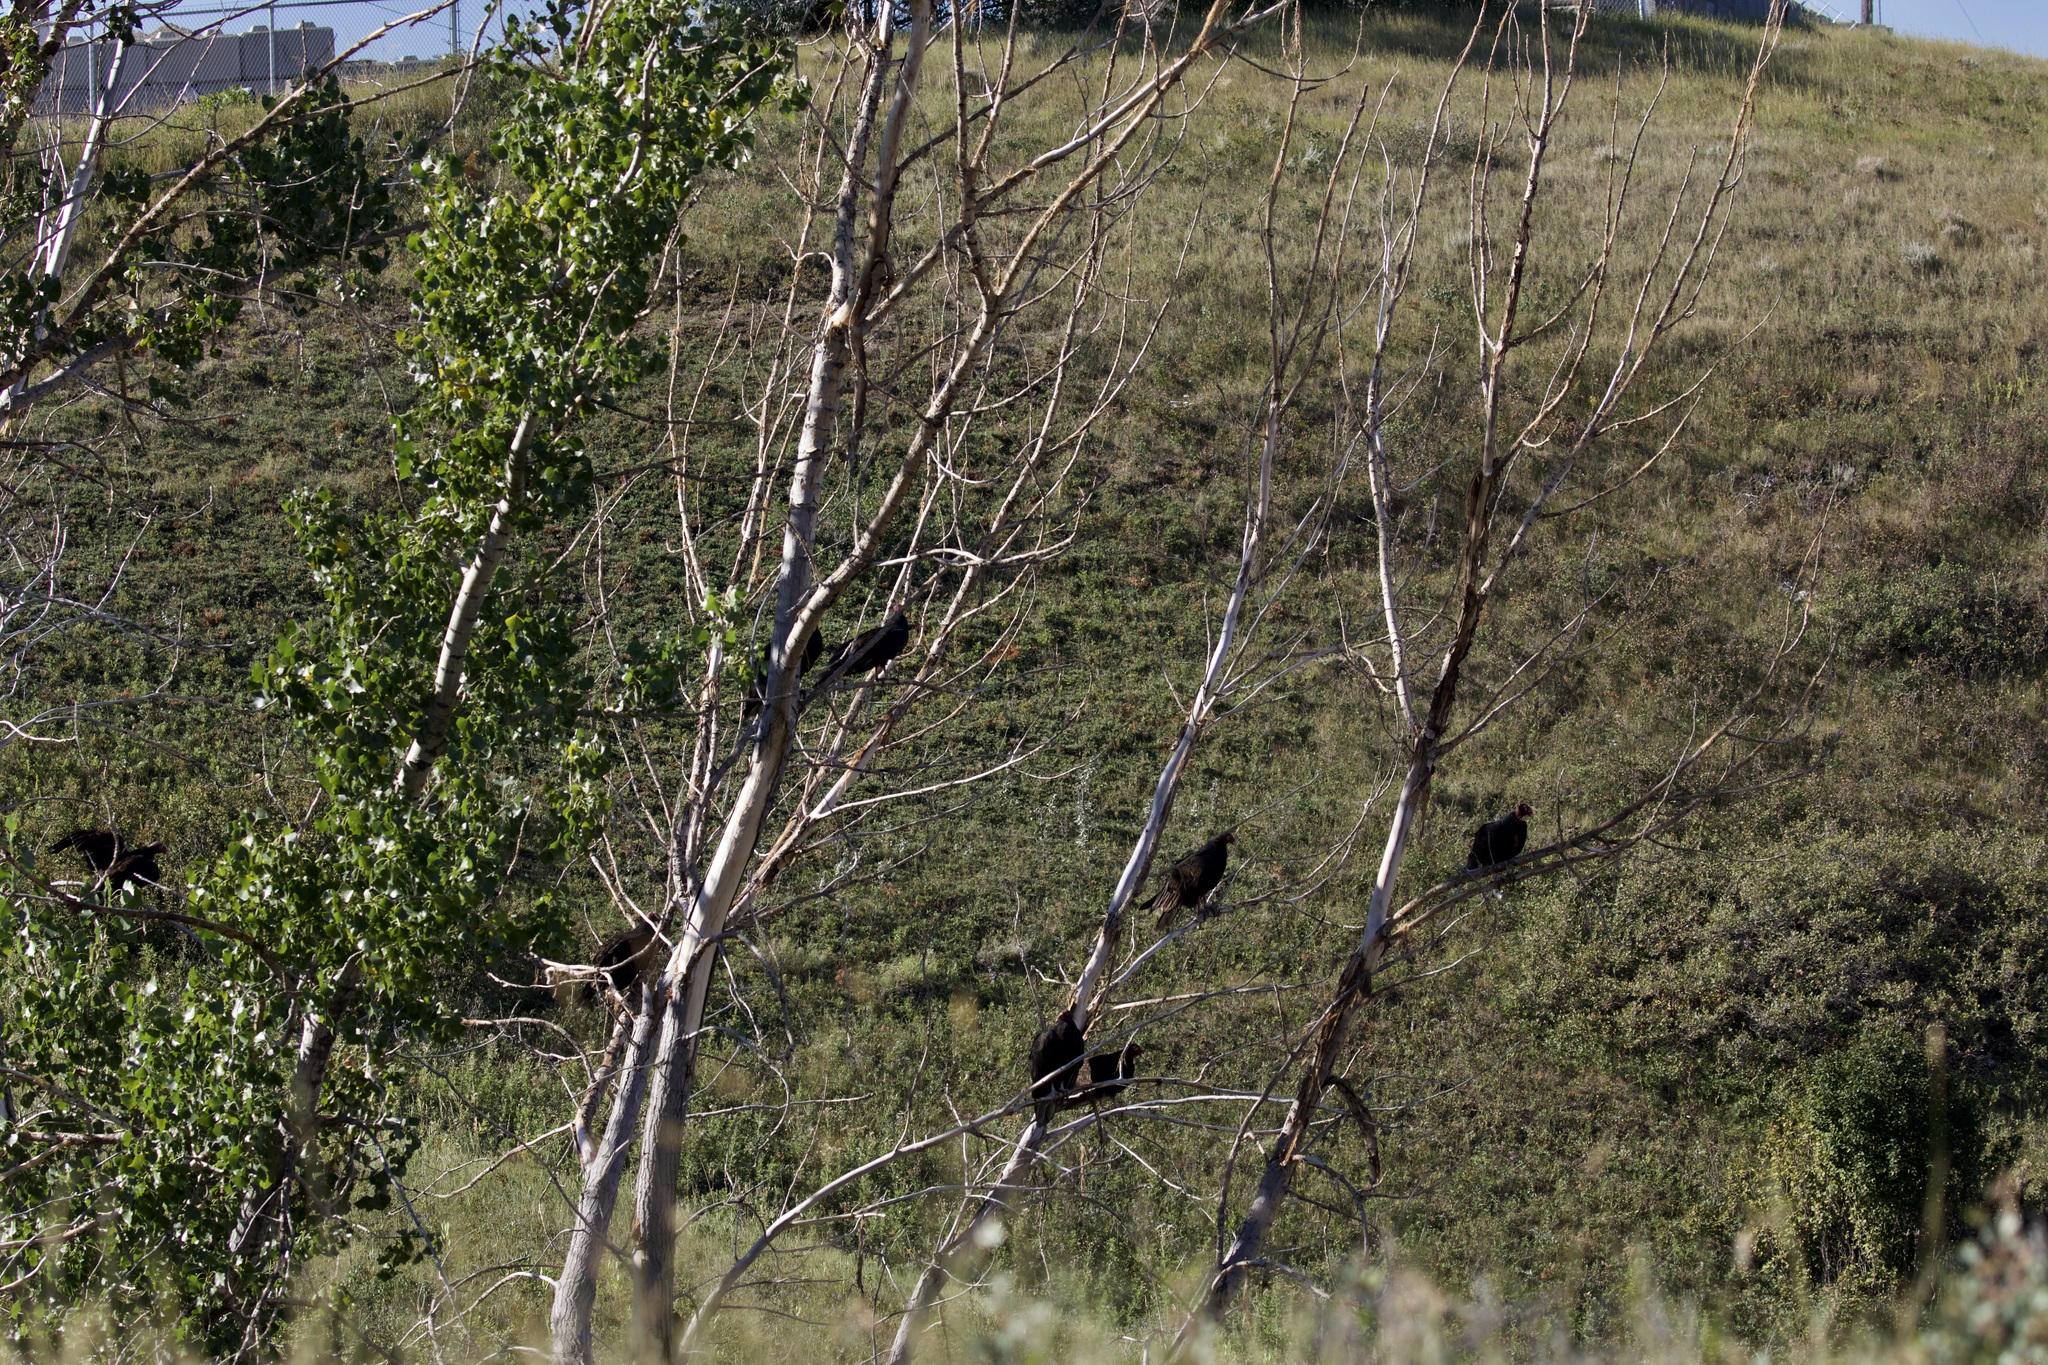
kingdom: Animalia
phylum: Chordata
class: Aves
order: Accipitriformes
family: Cathartidae
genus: Cathartes
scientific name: Cathartes aura
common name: Turkey vulture
